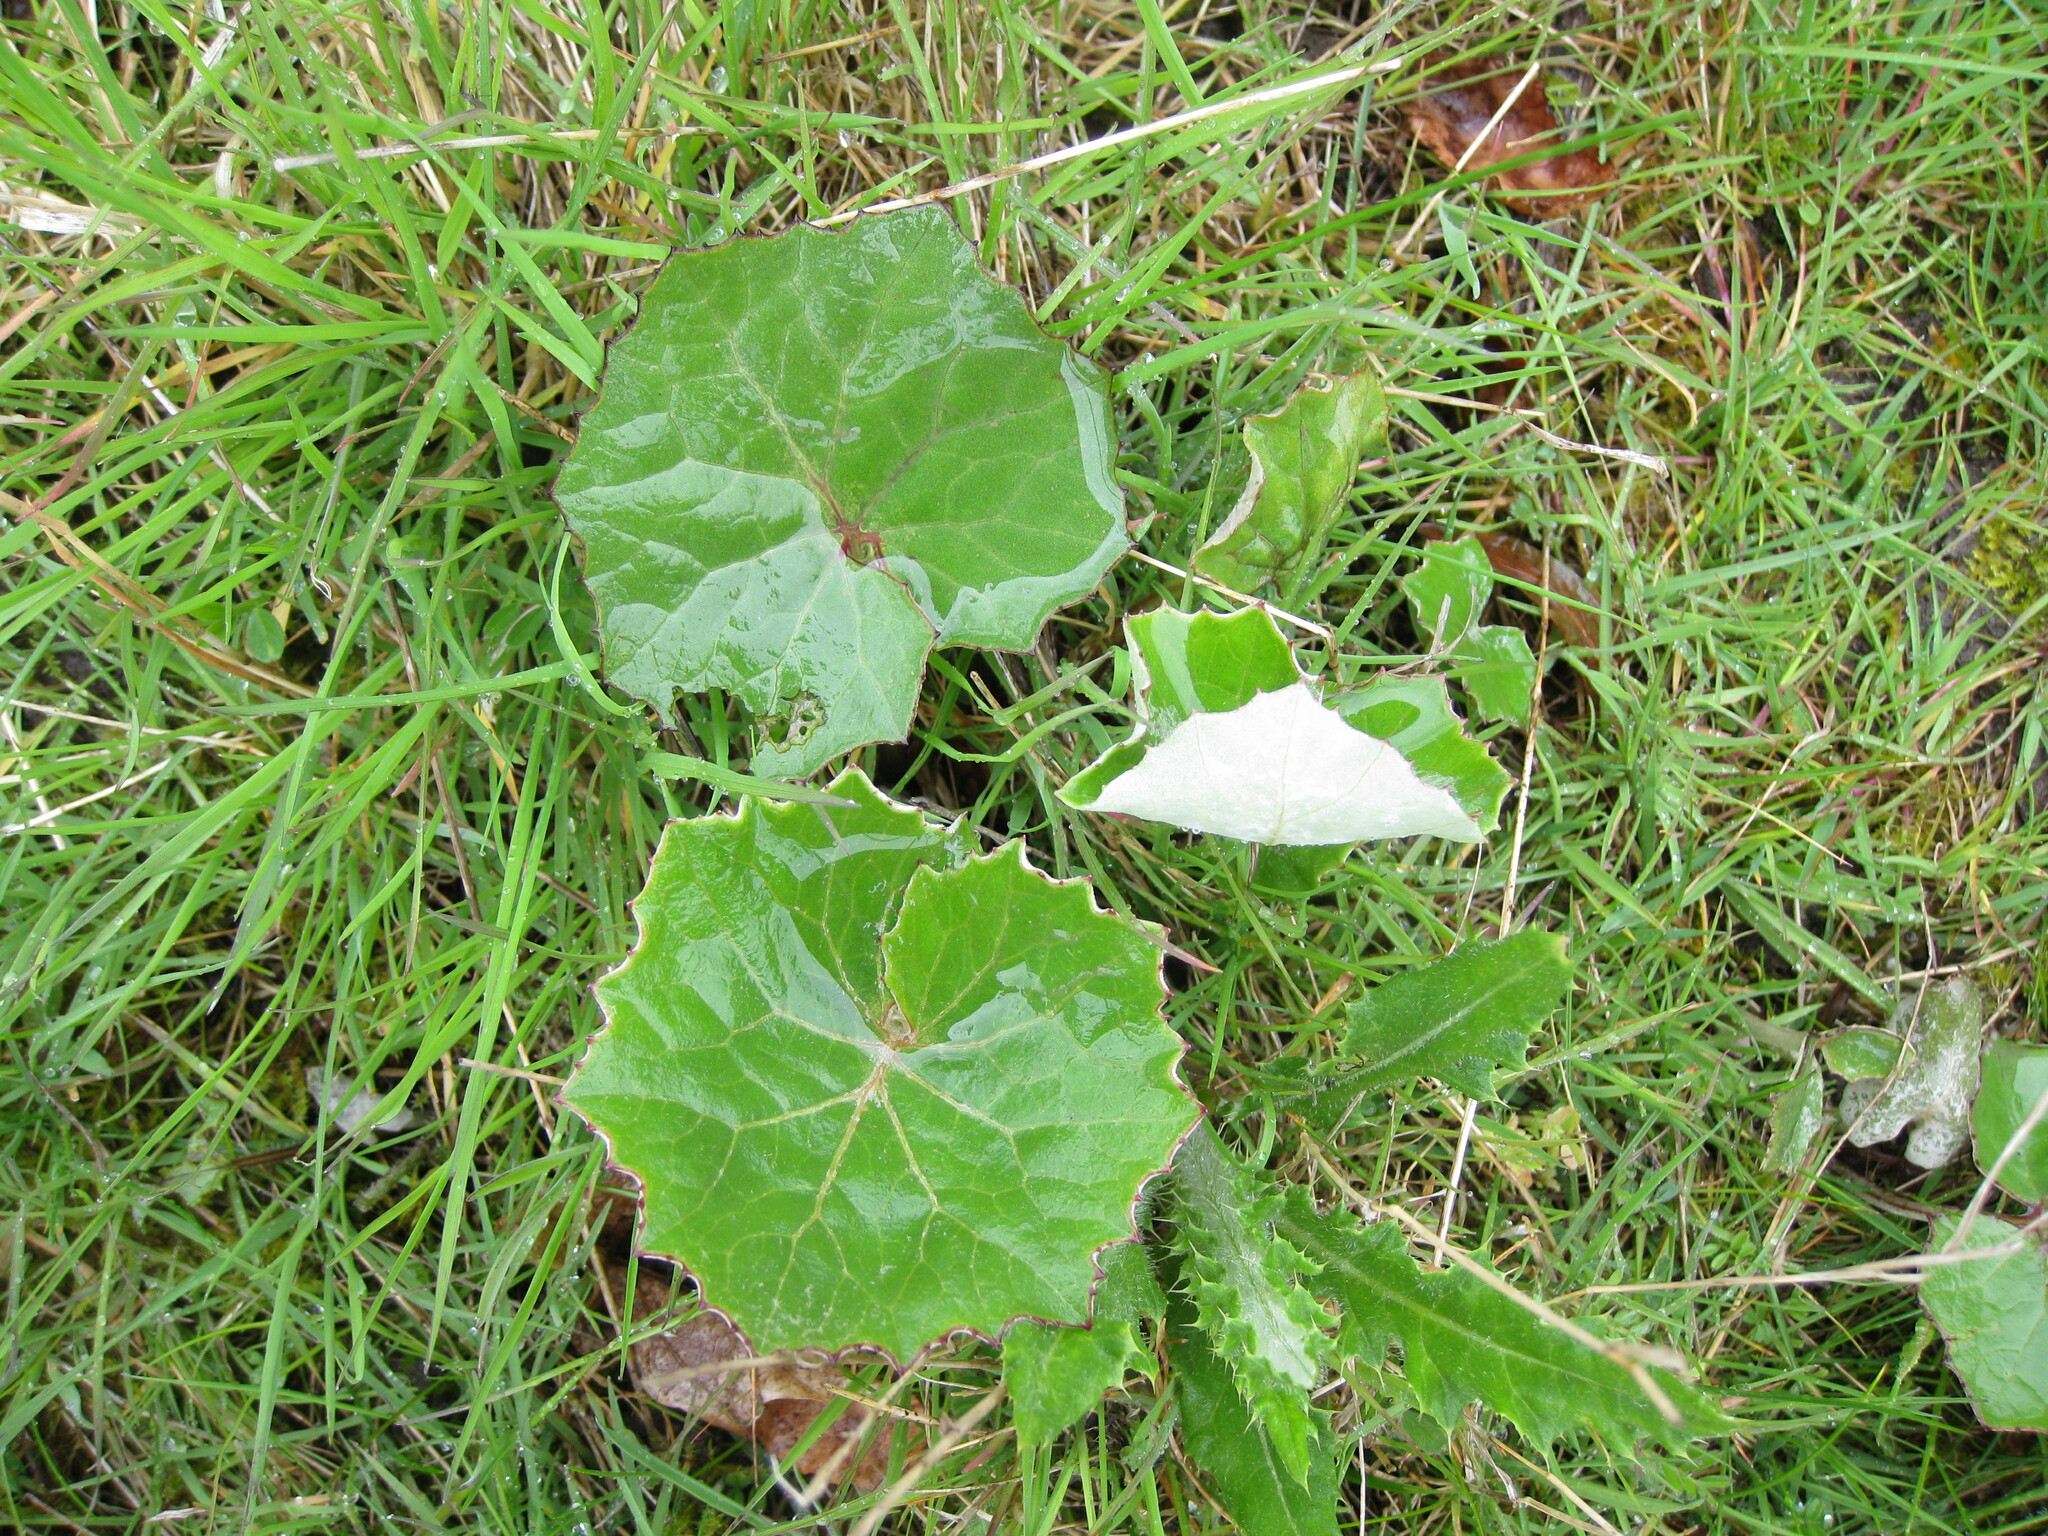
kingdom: Plantae
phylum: Tracheophyta
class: Magnoliopsida
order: Asterales
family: Asteraceae
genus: Tussilago
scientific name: Tussilago farfara
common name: Coltsfoot
